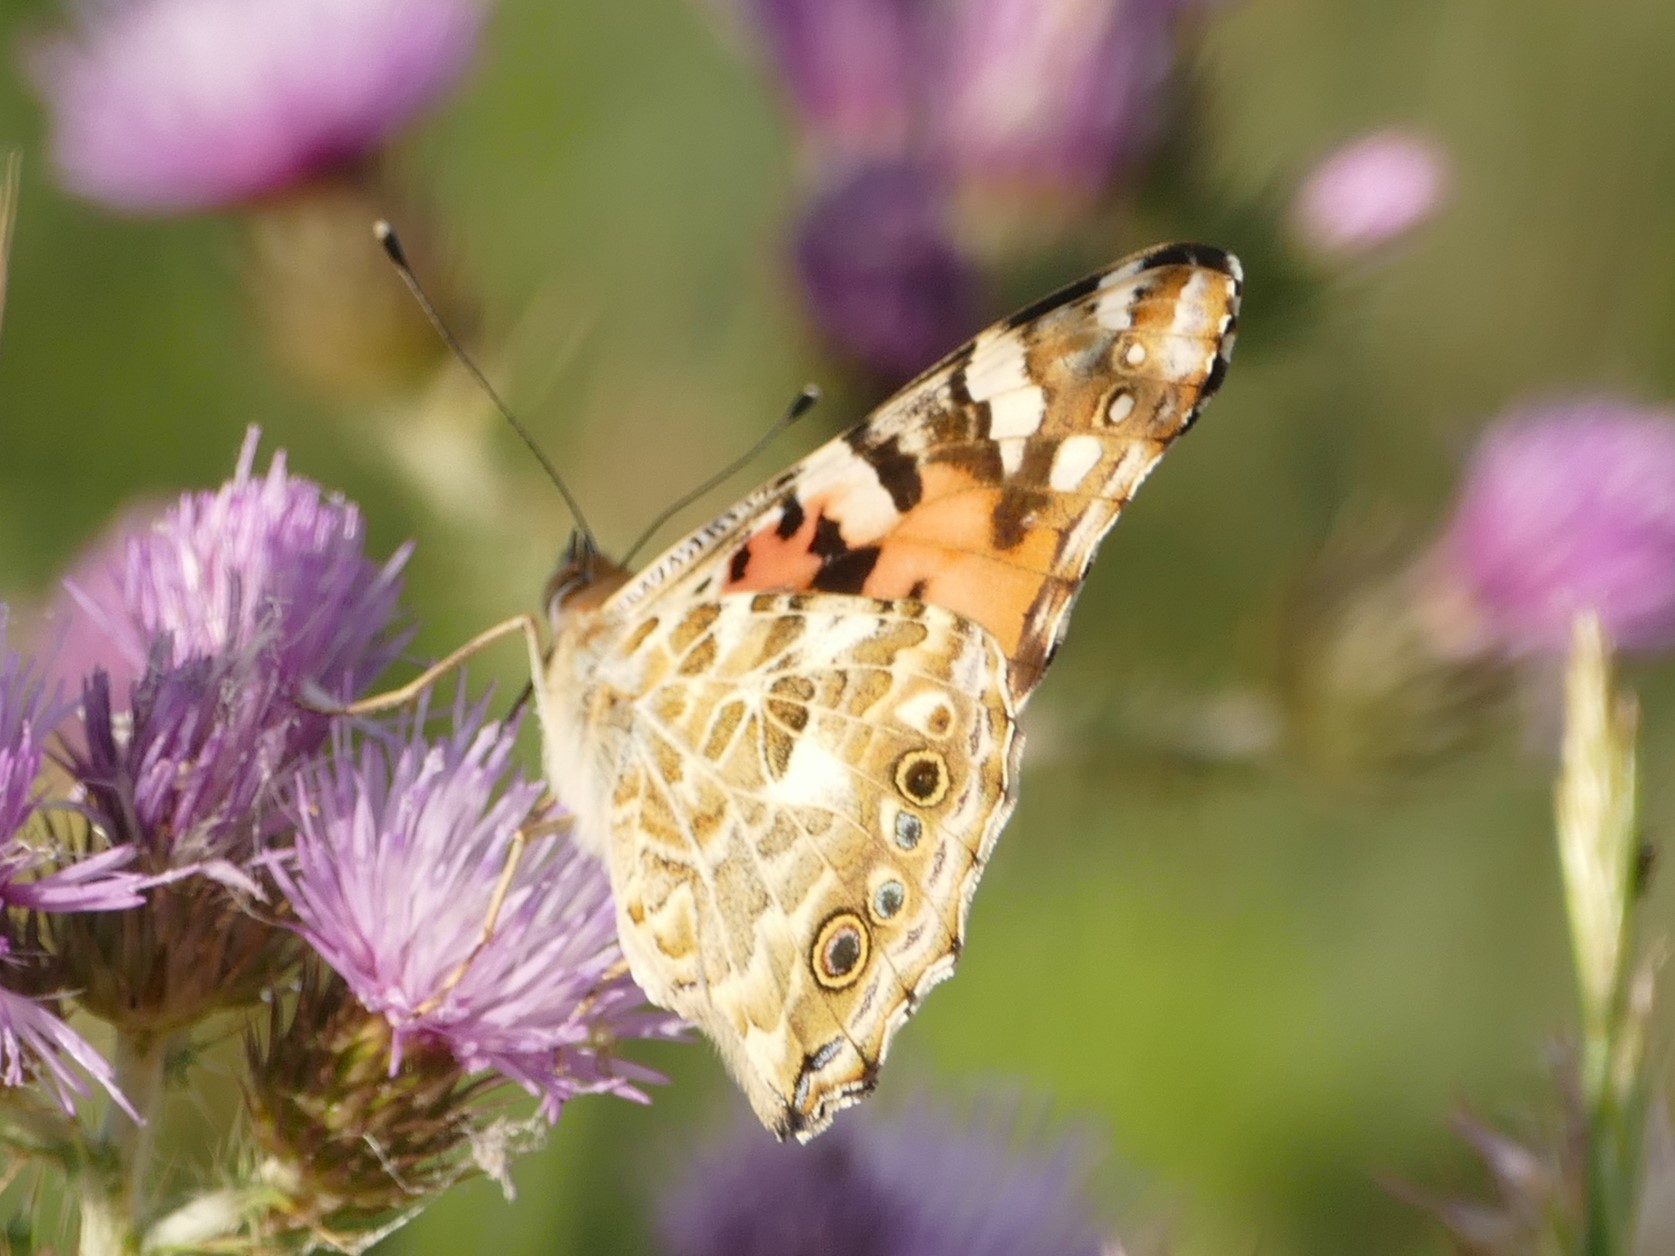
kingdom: Animalia
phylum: Arthropoda
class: Insecta
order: Lepidoptera
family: Nymphalidae
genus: Vanessa
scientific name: Vanessa cardui
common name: Painted lady
